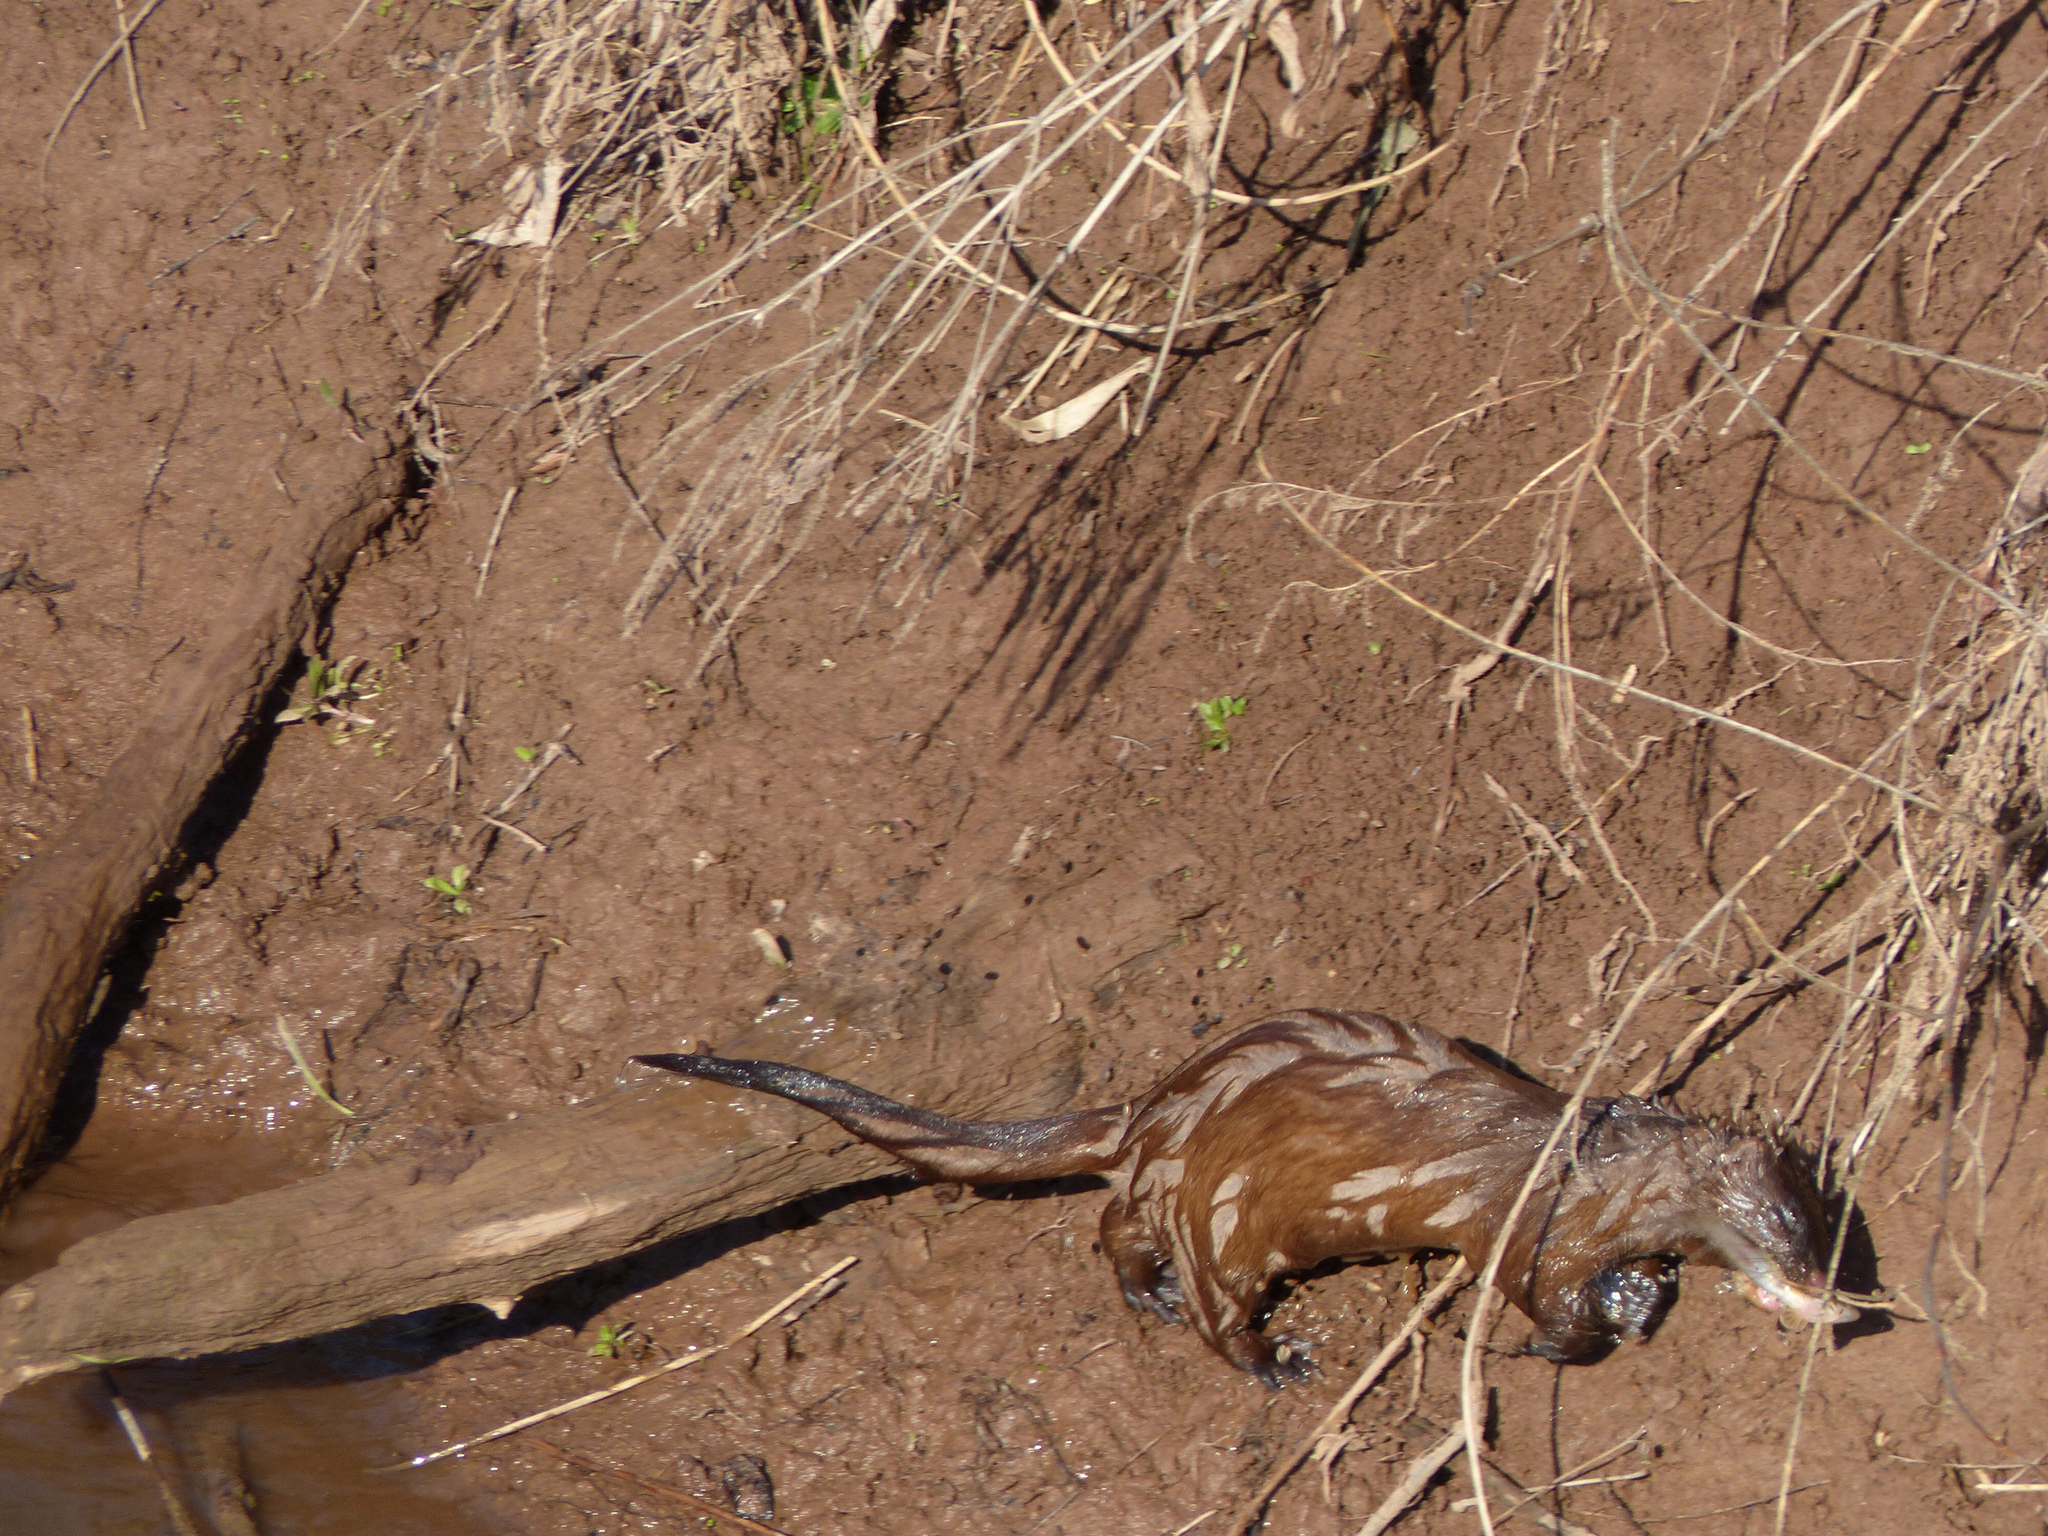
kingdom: Animalia
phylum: Chordata
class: Mammalia
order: Carnivora
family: Mustelidae
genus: Mustela
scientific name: Mustela
